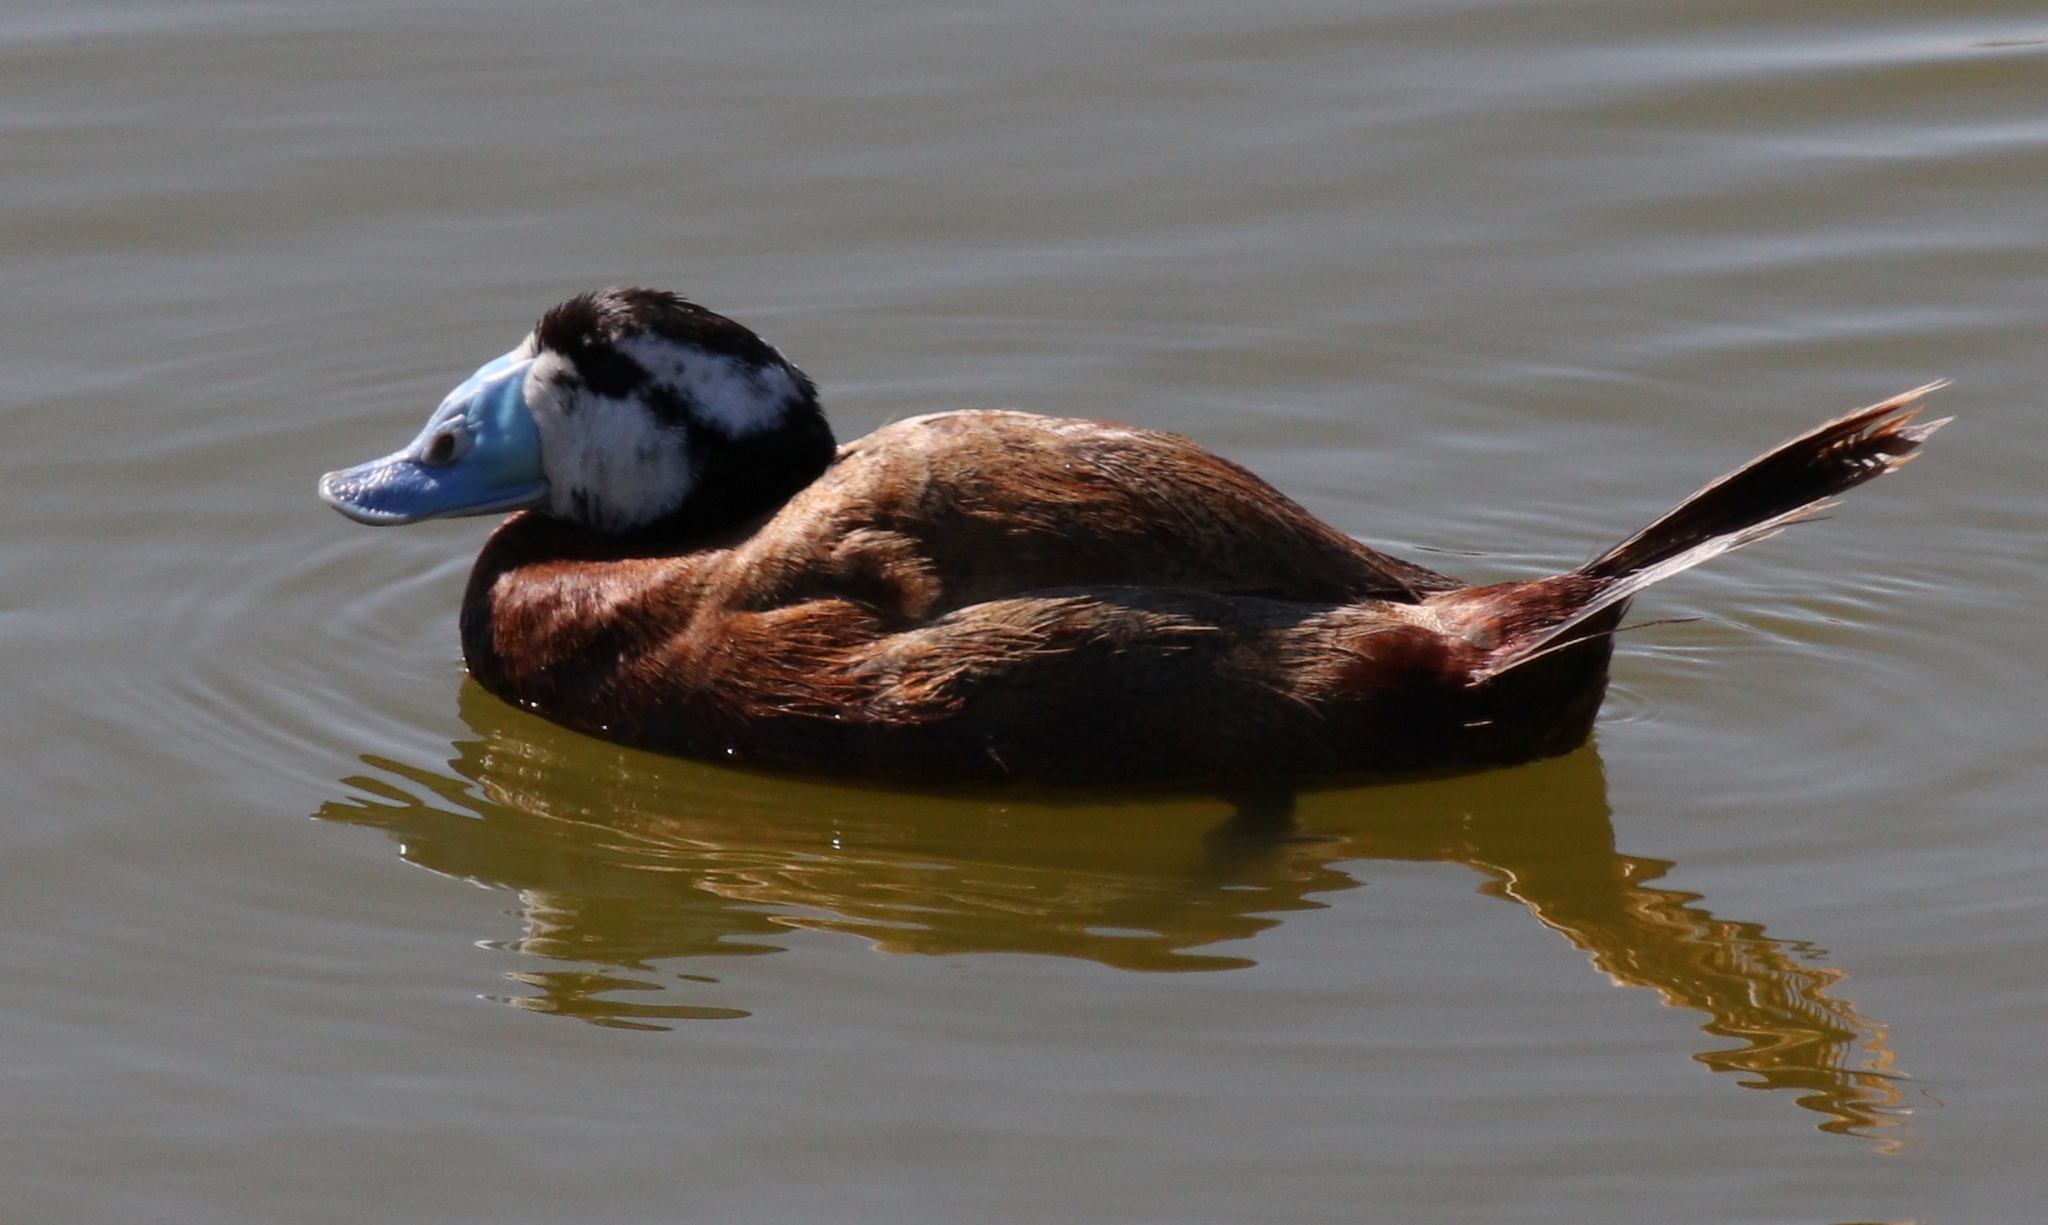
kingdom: Animalia
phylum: Chordata
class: Aves
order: Anseriformes
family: Anatidae
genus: Oxyura
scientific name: Oxyura leucocephala
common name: White-headed duck
